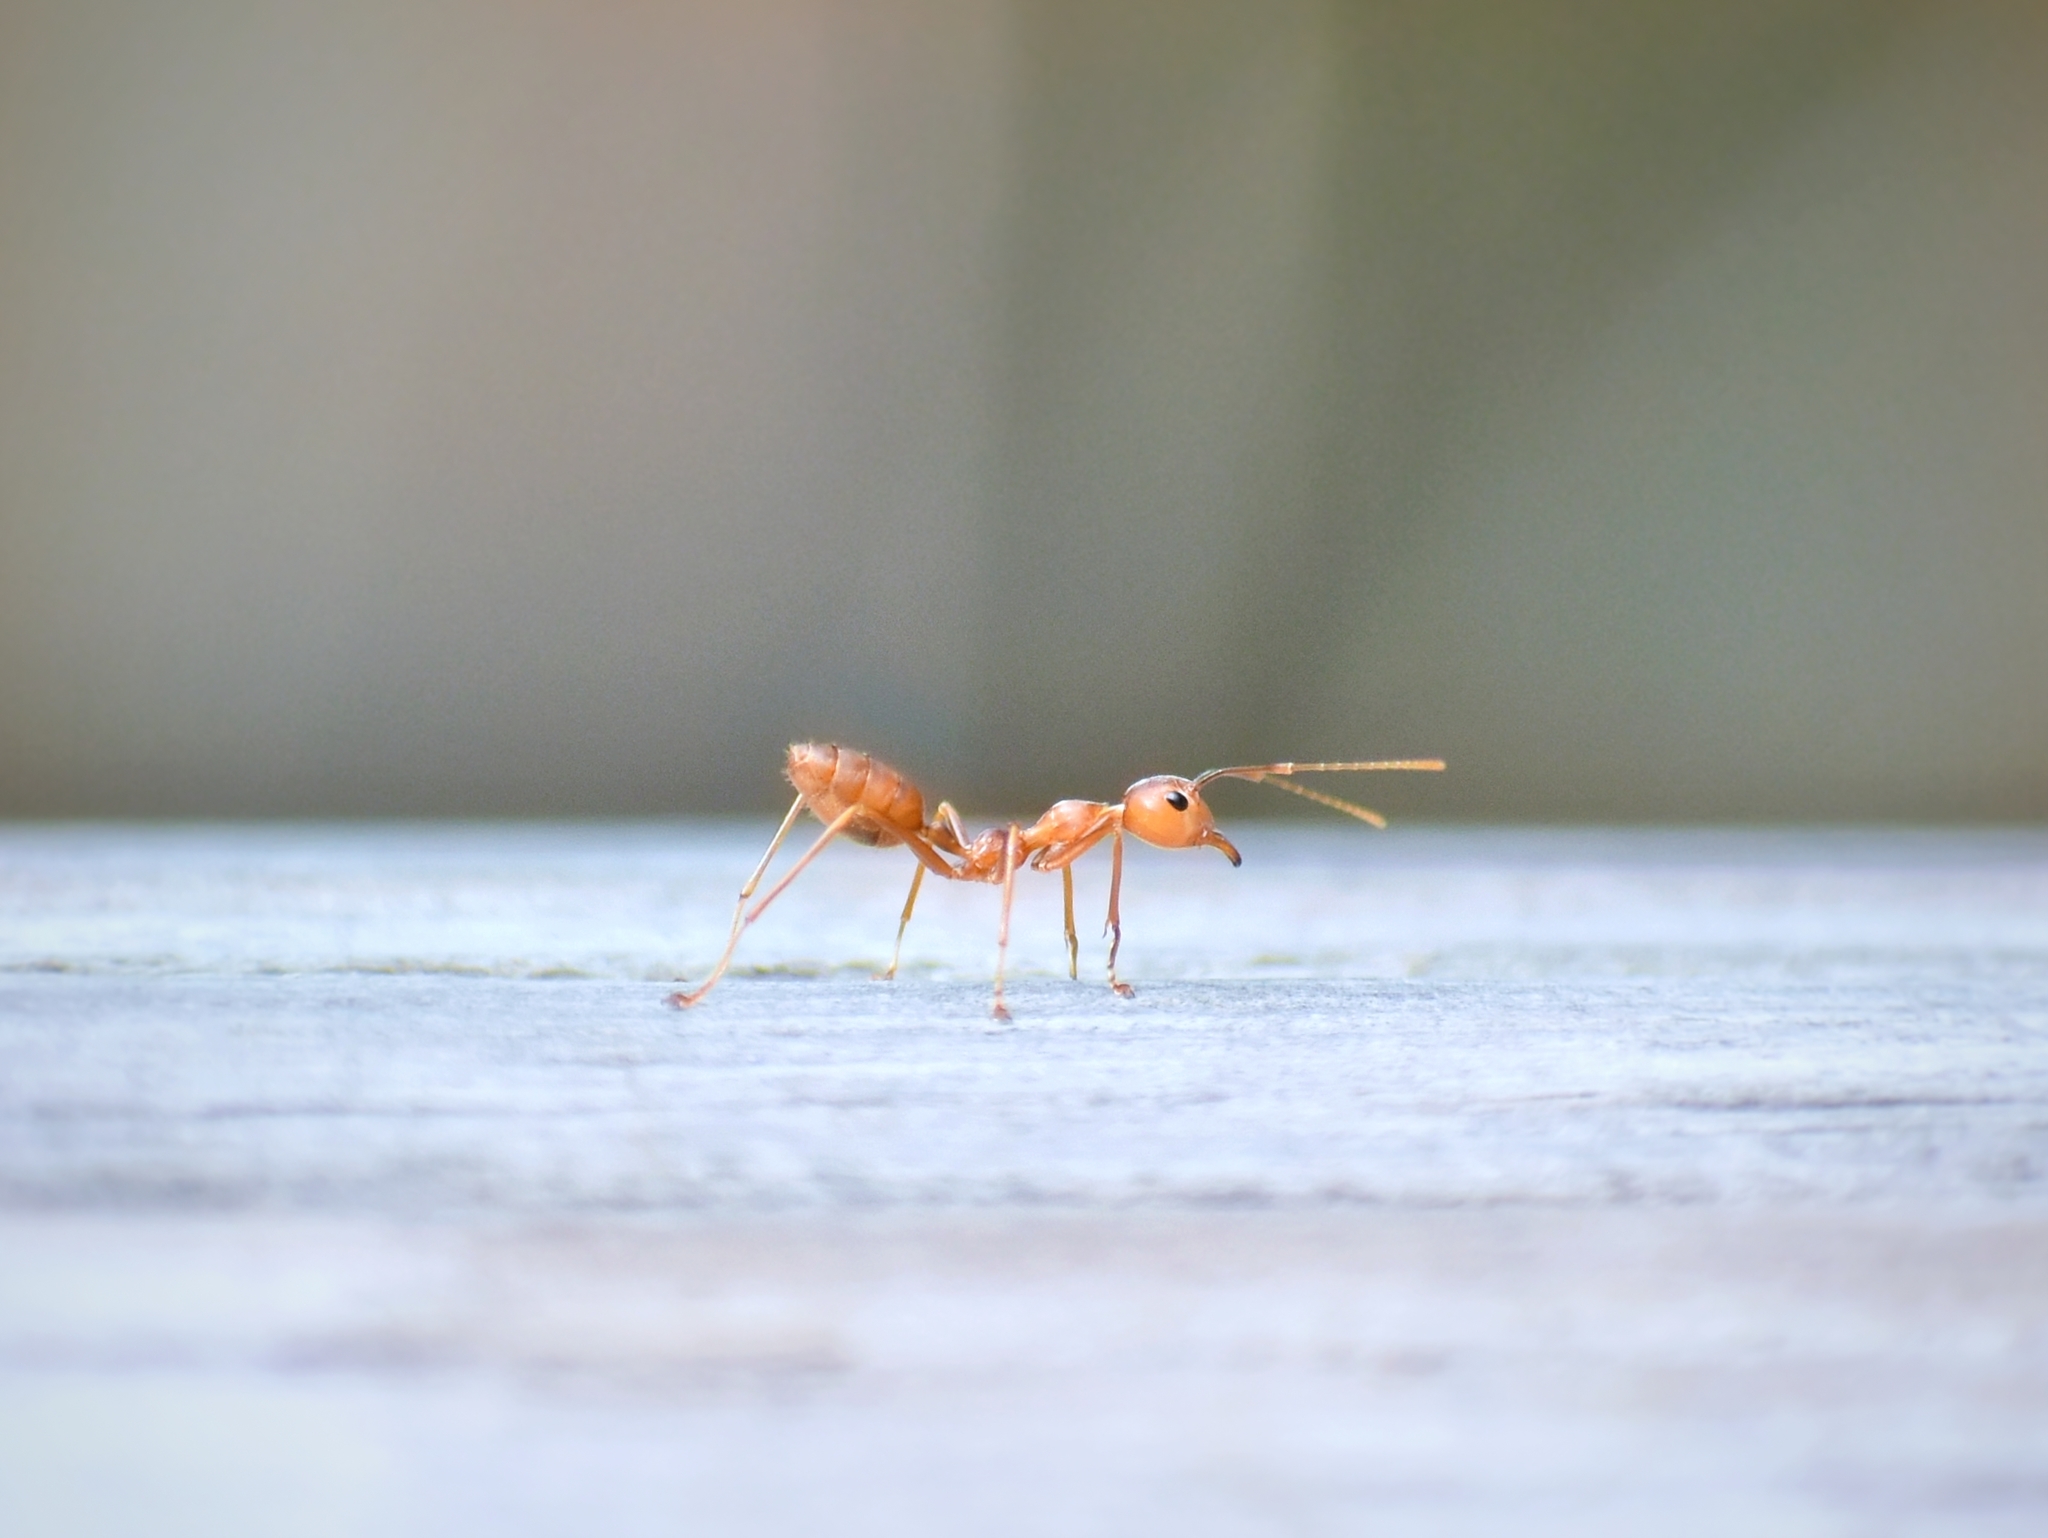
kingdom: Animalia
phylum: Arthropoda
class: Insecta
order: Hymenoptera
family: Formicidae
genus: Oecophylla
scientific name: Oecophylla smaragdina
